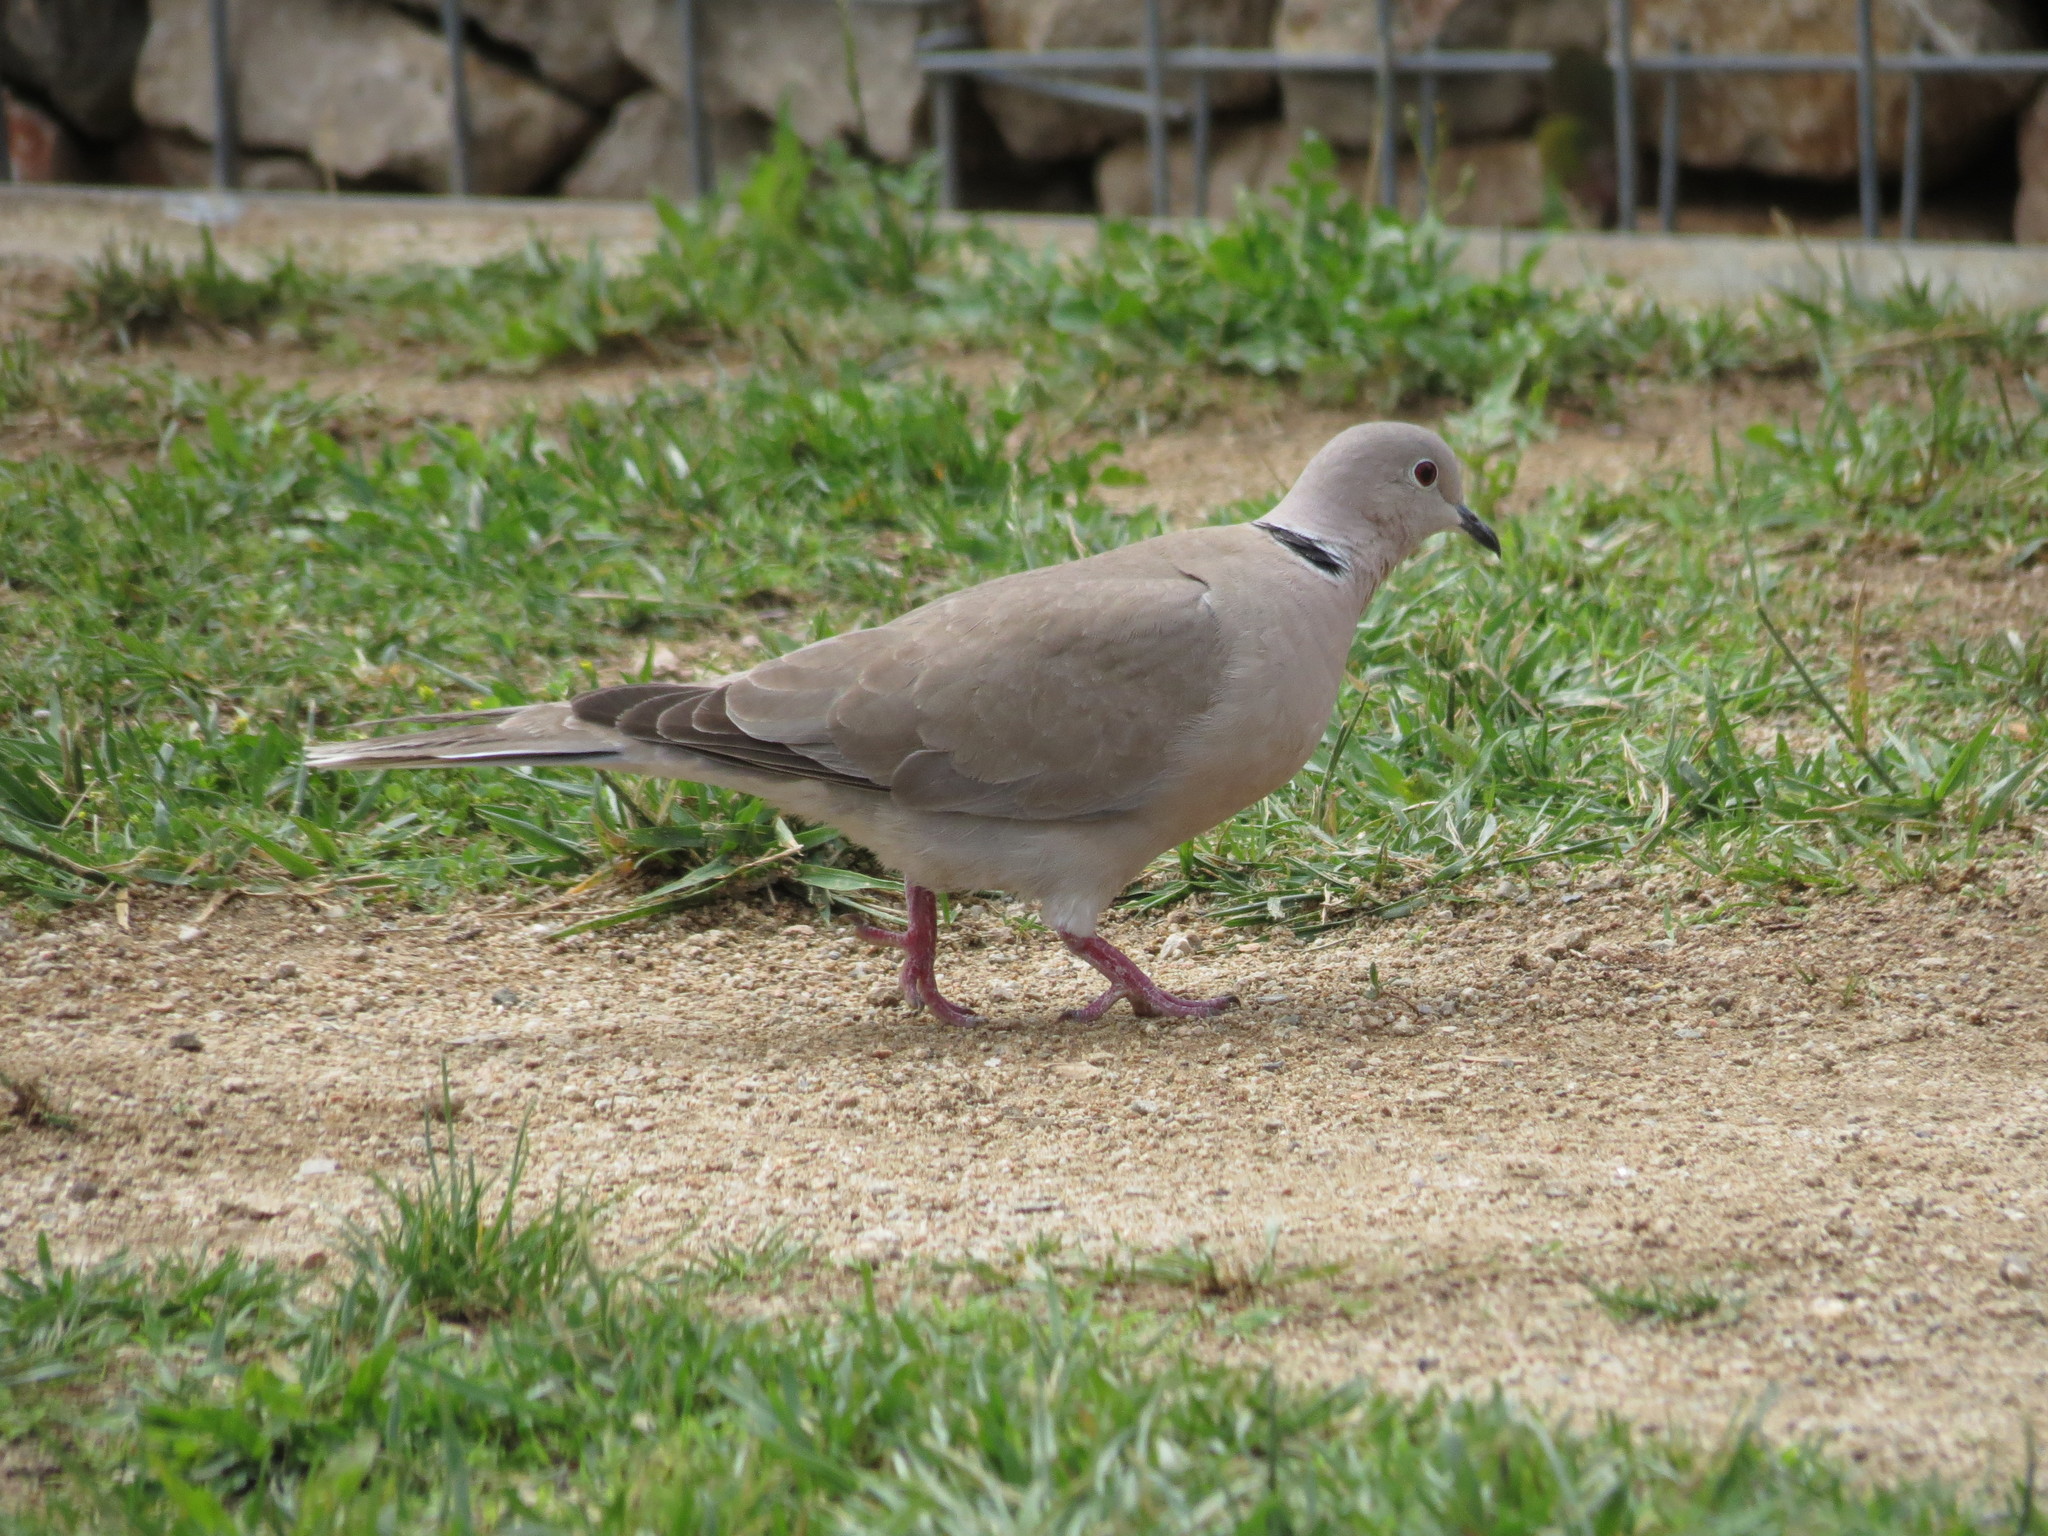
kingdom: Animalia
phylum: Chordata
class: Aves
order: Columbiformes
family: Columbidae
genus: Streptopelia
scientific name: Streptopelia decaocto
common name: Eurasian collared dove
